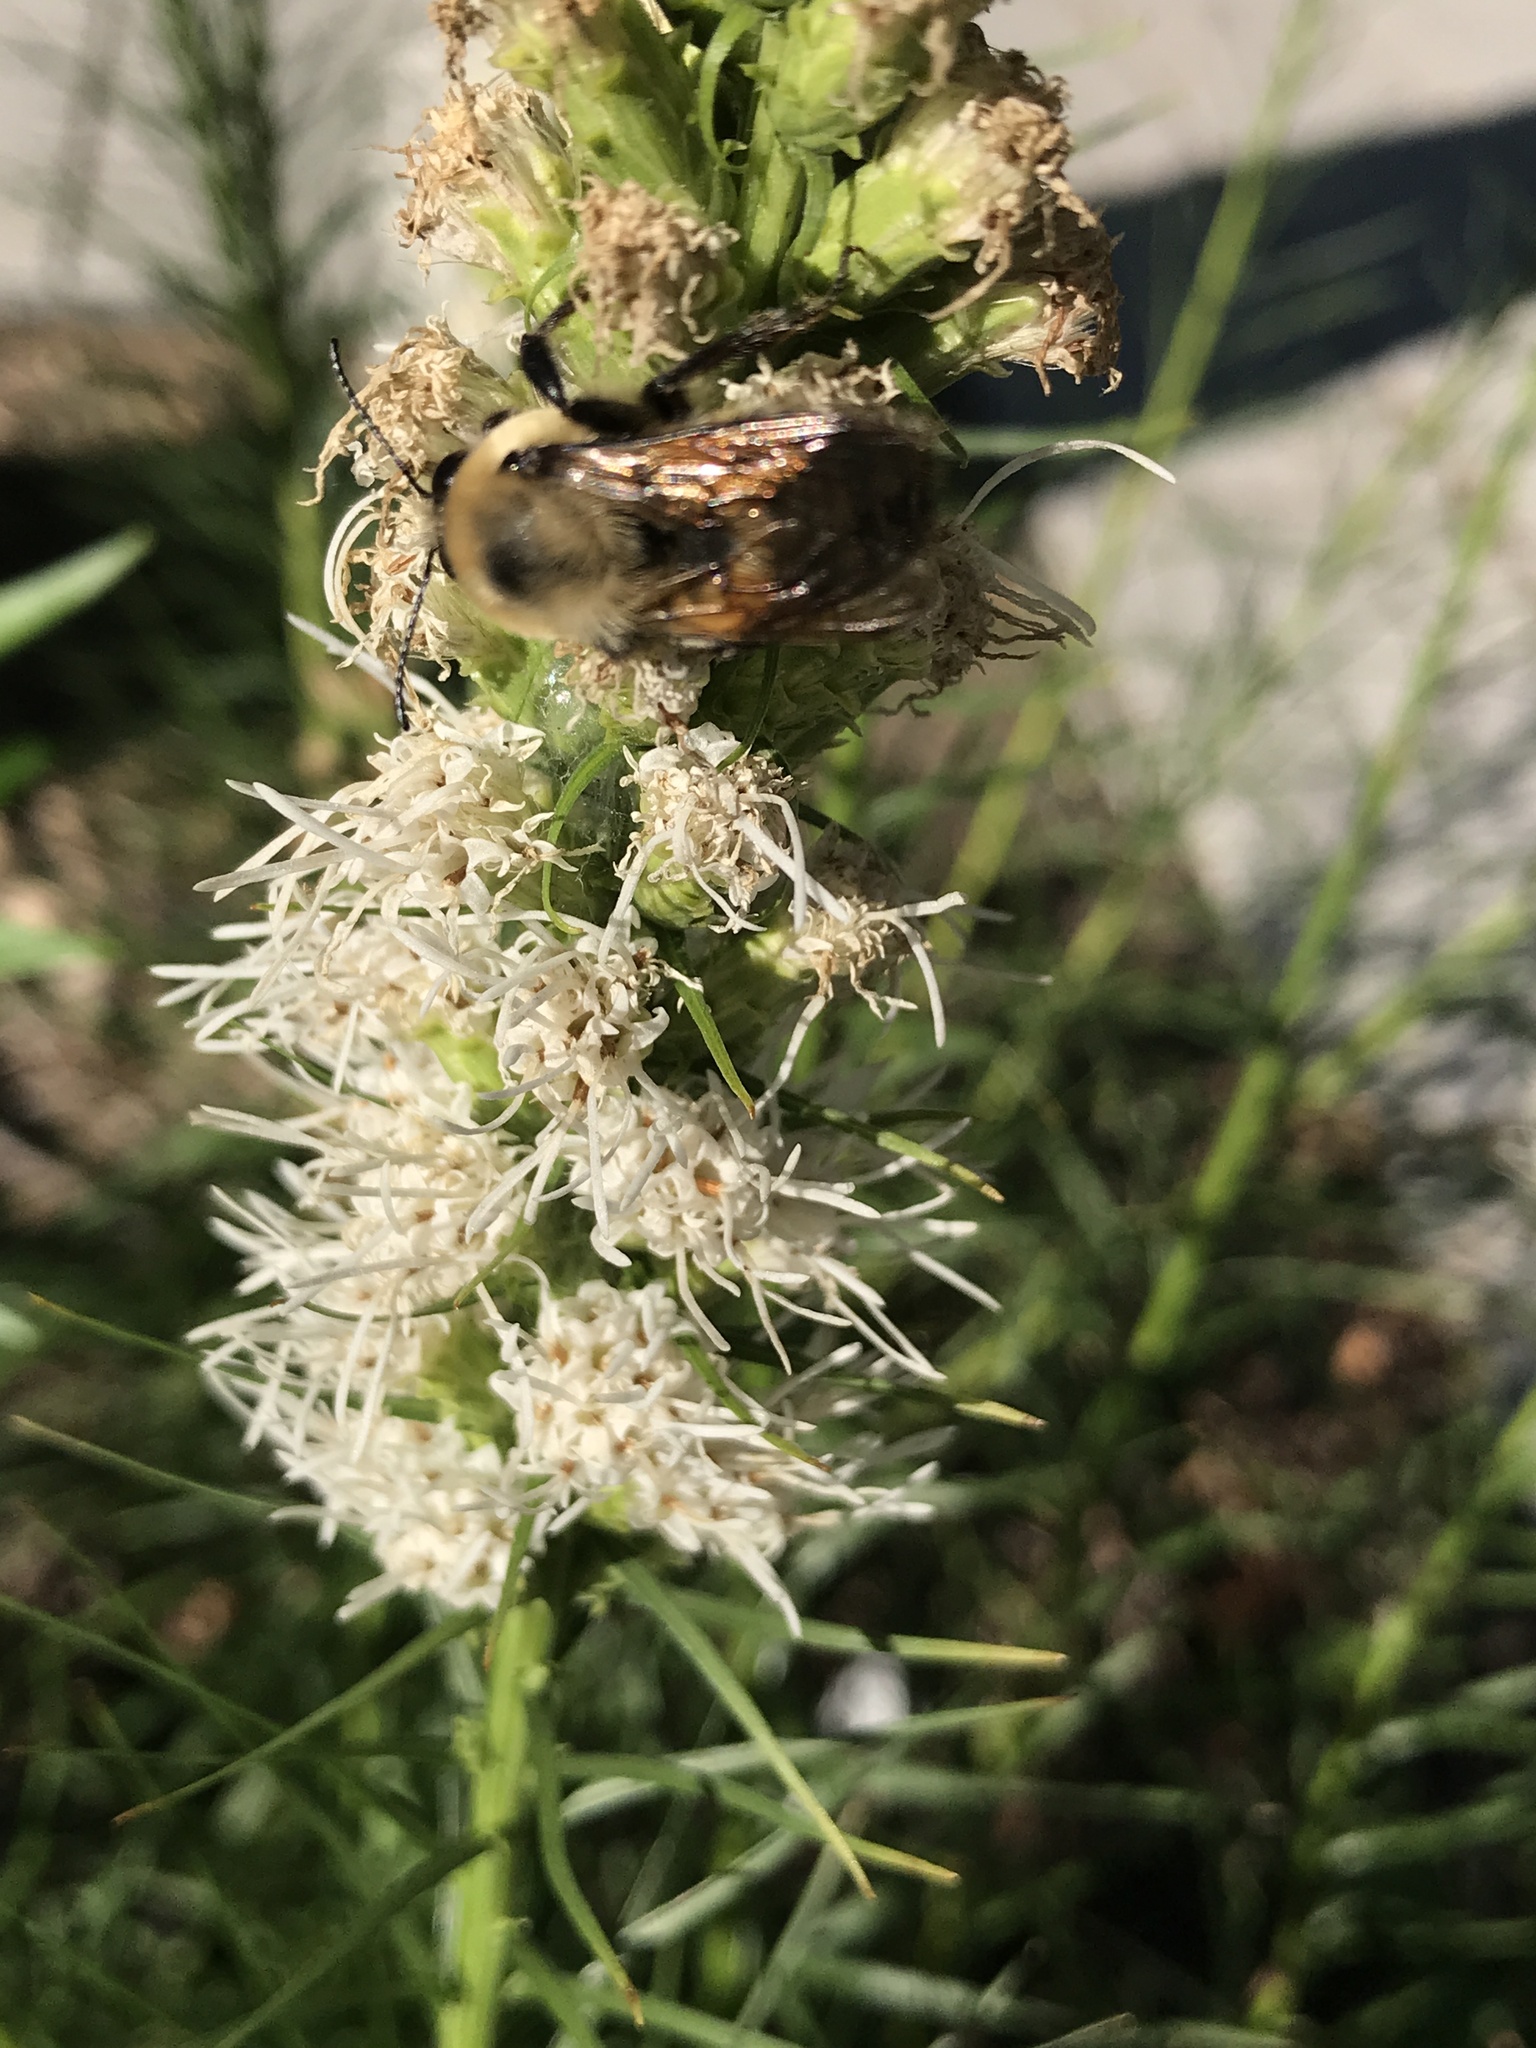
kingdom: Animalia
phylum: Arthropoda
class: Insecta
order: Hymenoptera
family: Apidae
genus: Bombus
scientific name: Bombus griseocollis
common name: Brown-belted bumble bee
